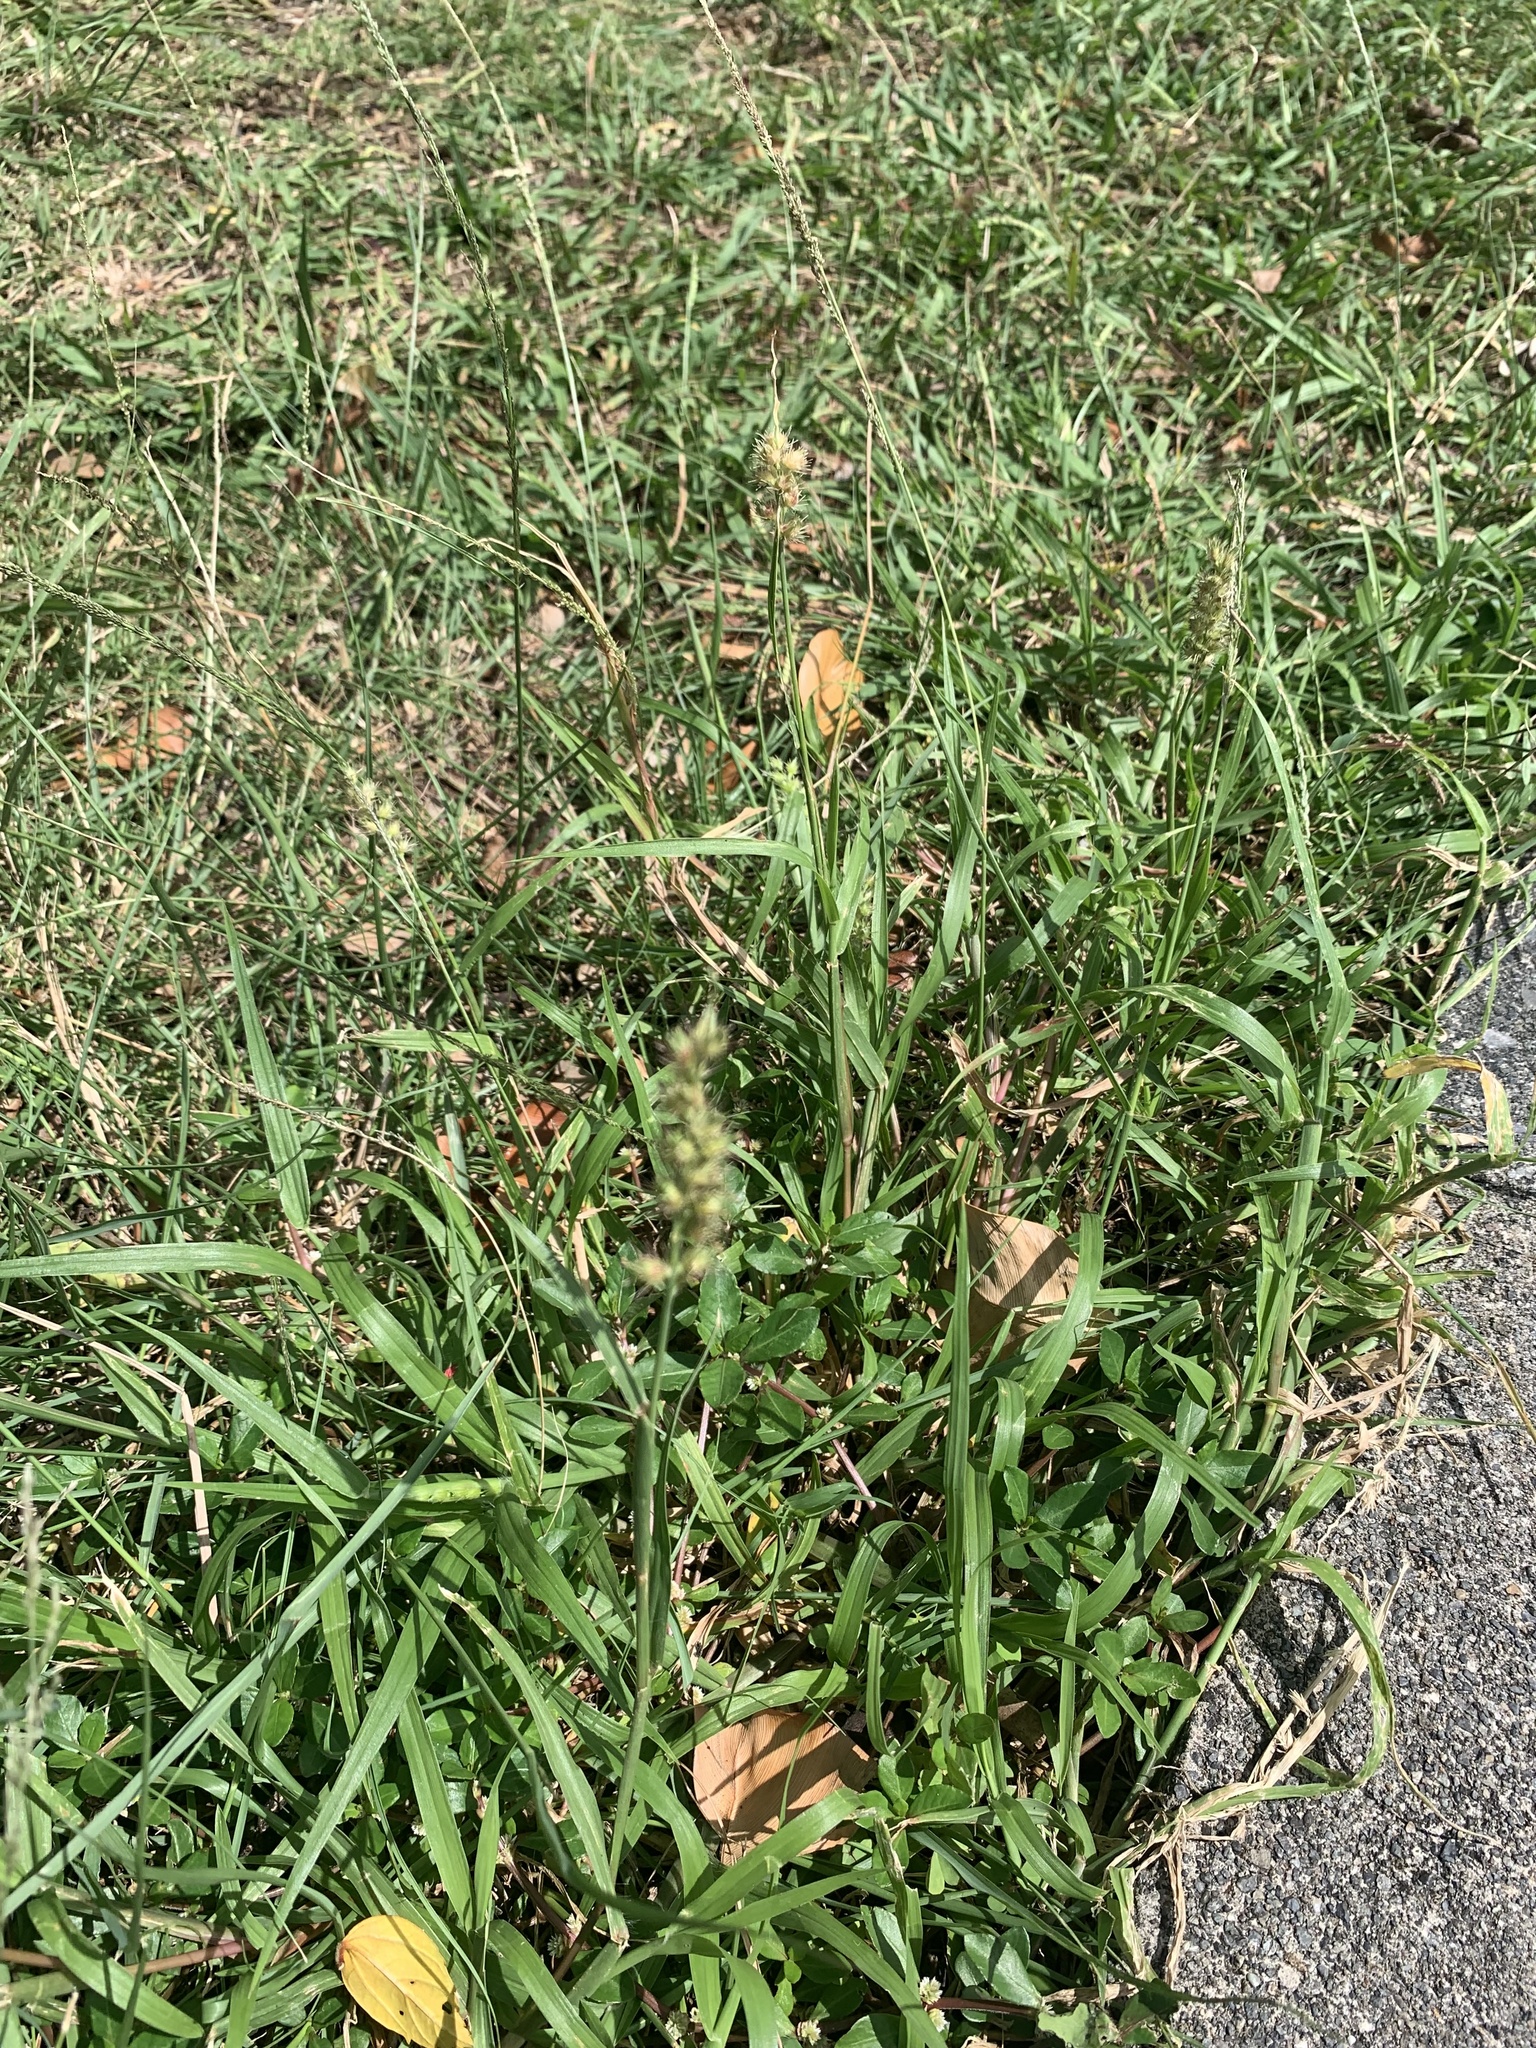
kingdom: Plantae
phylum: Tracheophyta
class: Liliopsida
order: Poales
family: Poaceae
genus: Cenchrus
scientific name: Cenchrus echinatus
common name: Southern sandbur
